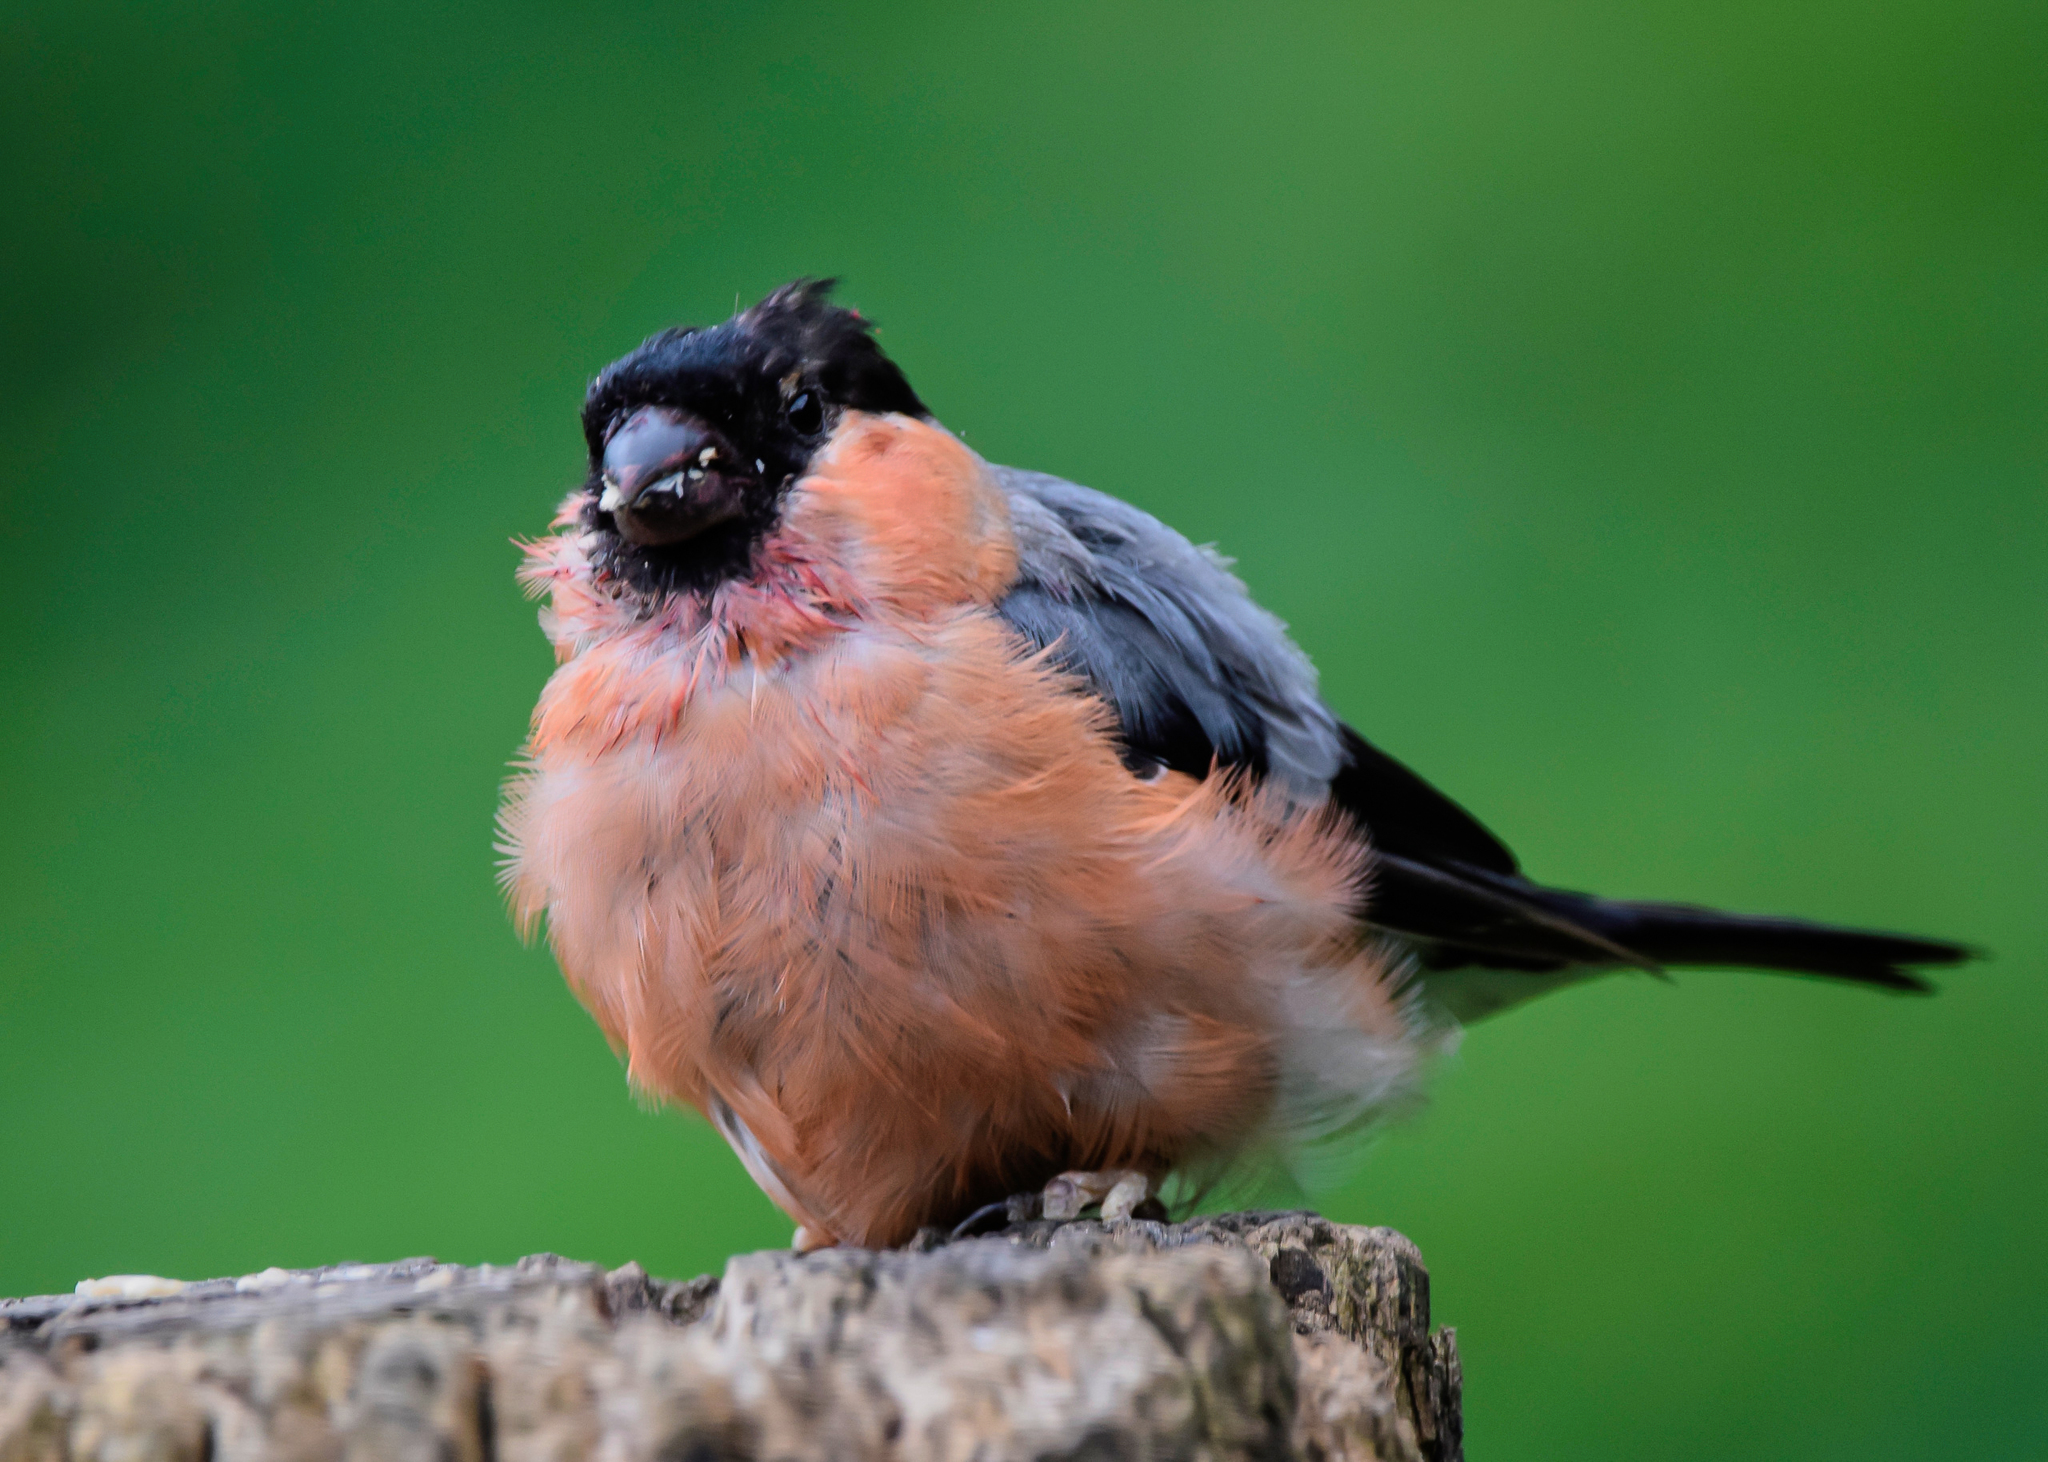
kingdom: Animalia
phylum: Chordata
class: Aves
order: Passeriformes
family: Fringillidae
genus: Pyrrhula
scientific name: Pyrrhula pyrrhula
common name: Eurasian bullfinch
